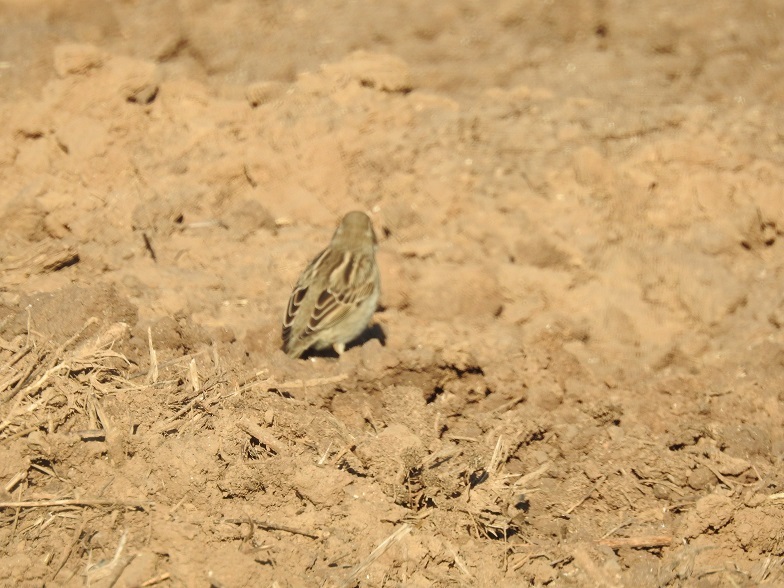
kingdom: Animalia
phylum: Chordata
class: Aves
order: Passeriformes
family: Passeridae
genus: Passer
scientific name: Passer hispaniolensis
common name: Spanish sparrow
